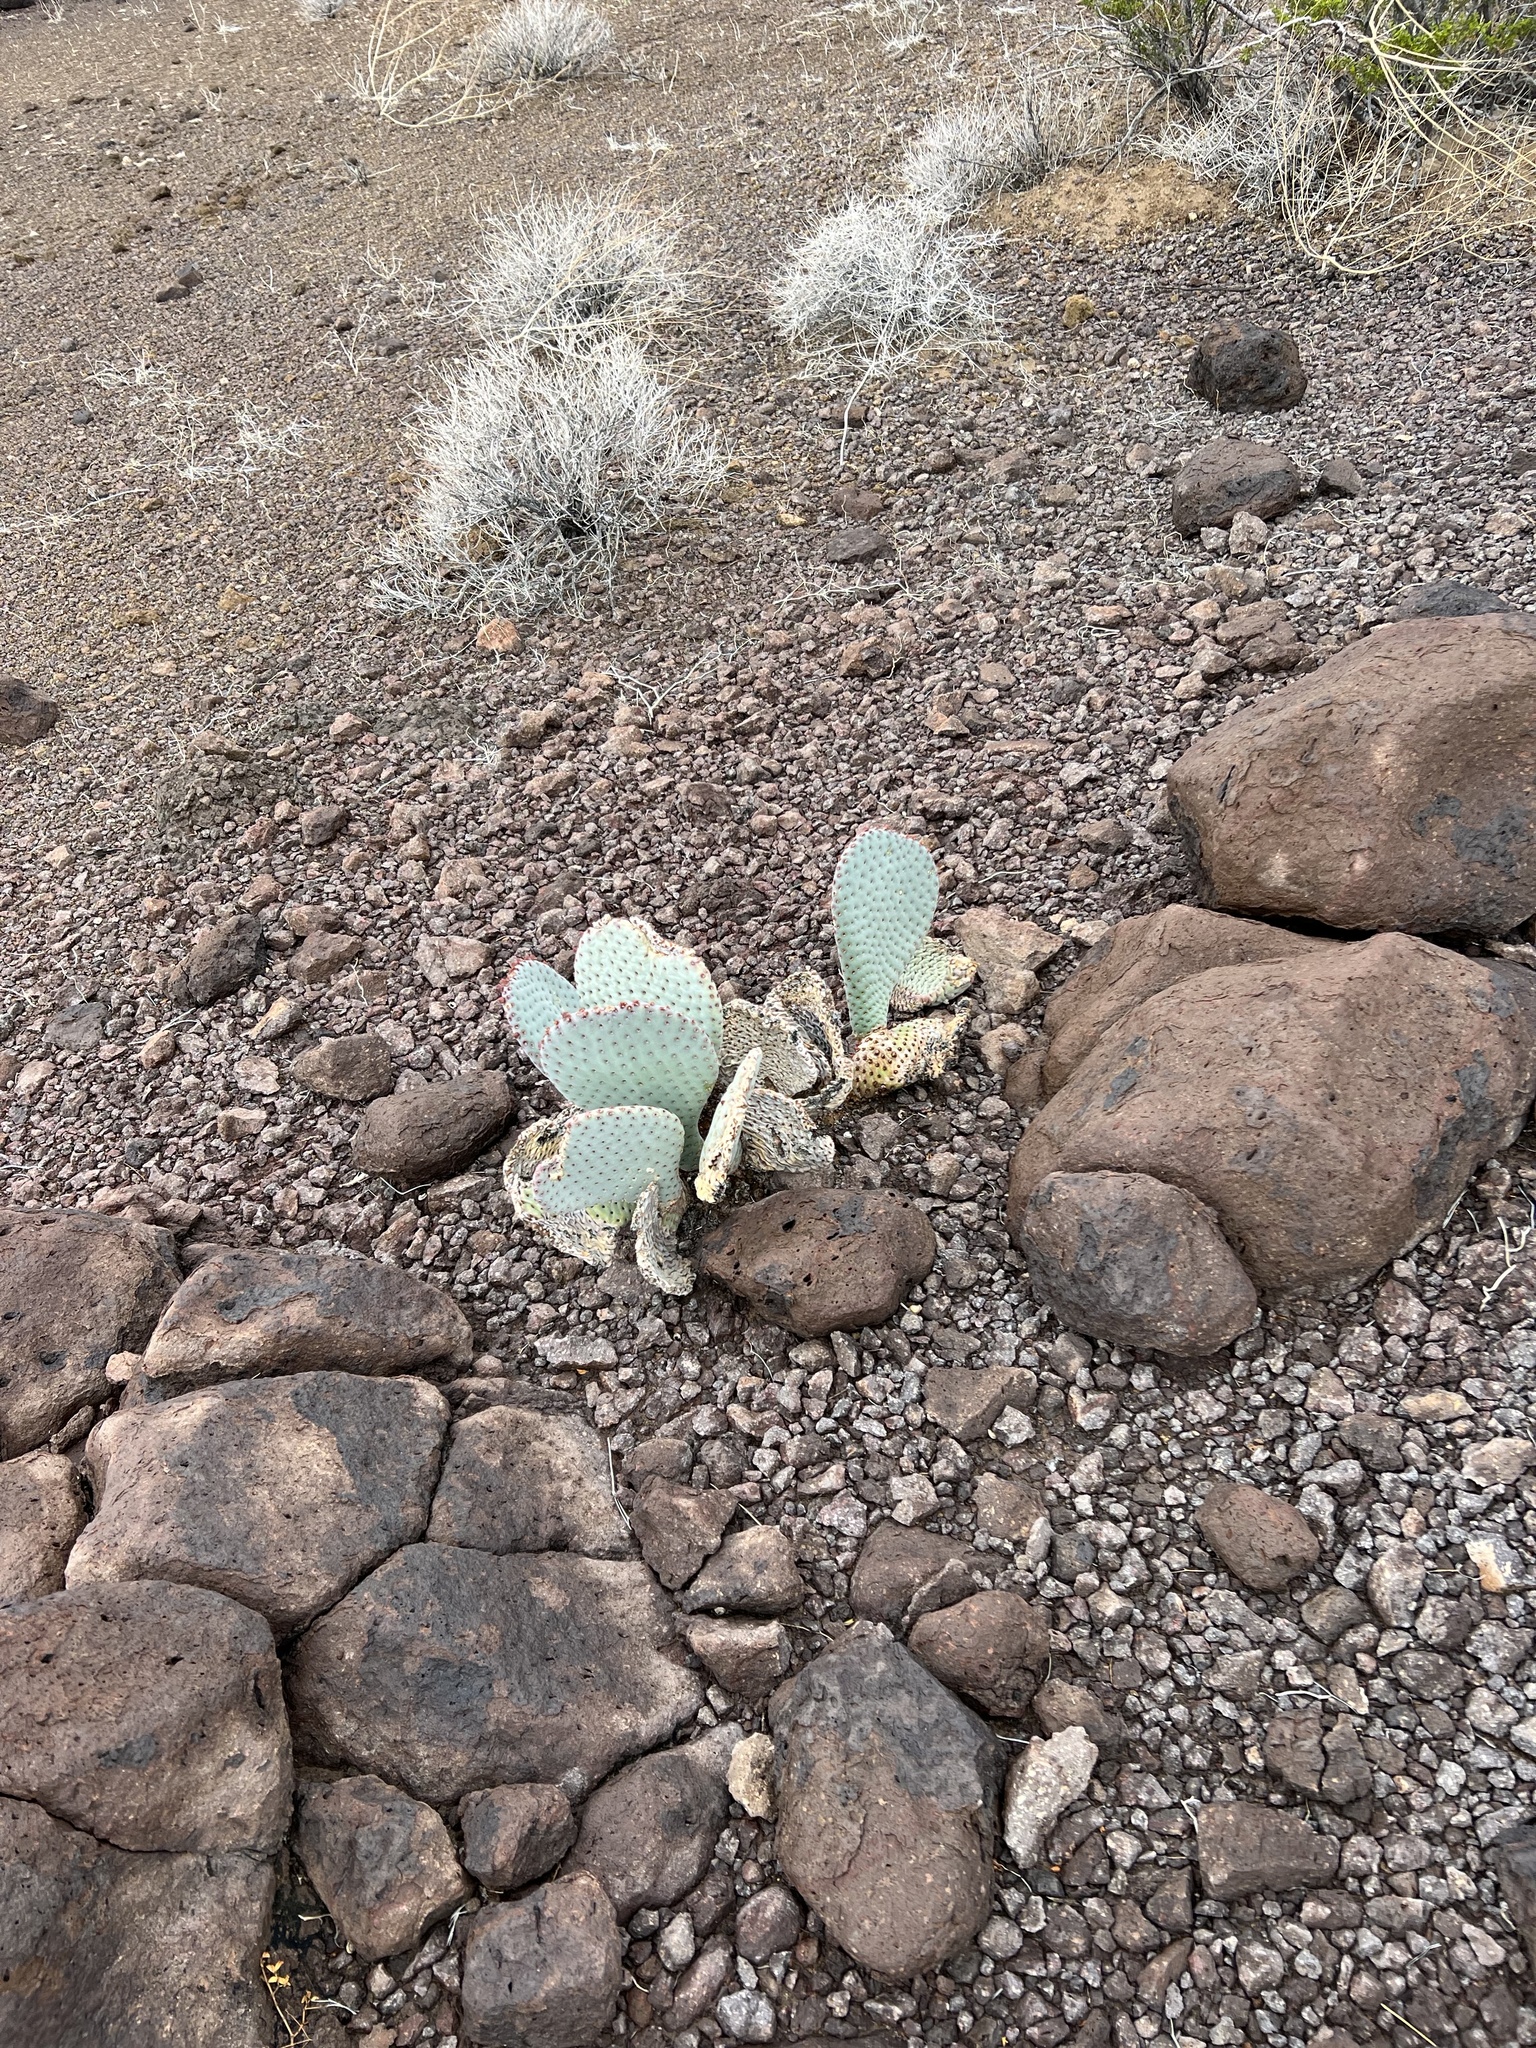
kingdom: Plantae
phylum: Tracheophyta
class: Magnoliopsida
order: Caryophyllales
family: Cactaceae
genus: Opuntia
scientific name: Opuntia basilaris
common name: Beavertail prickly-pear
